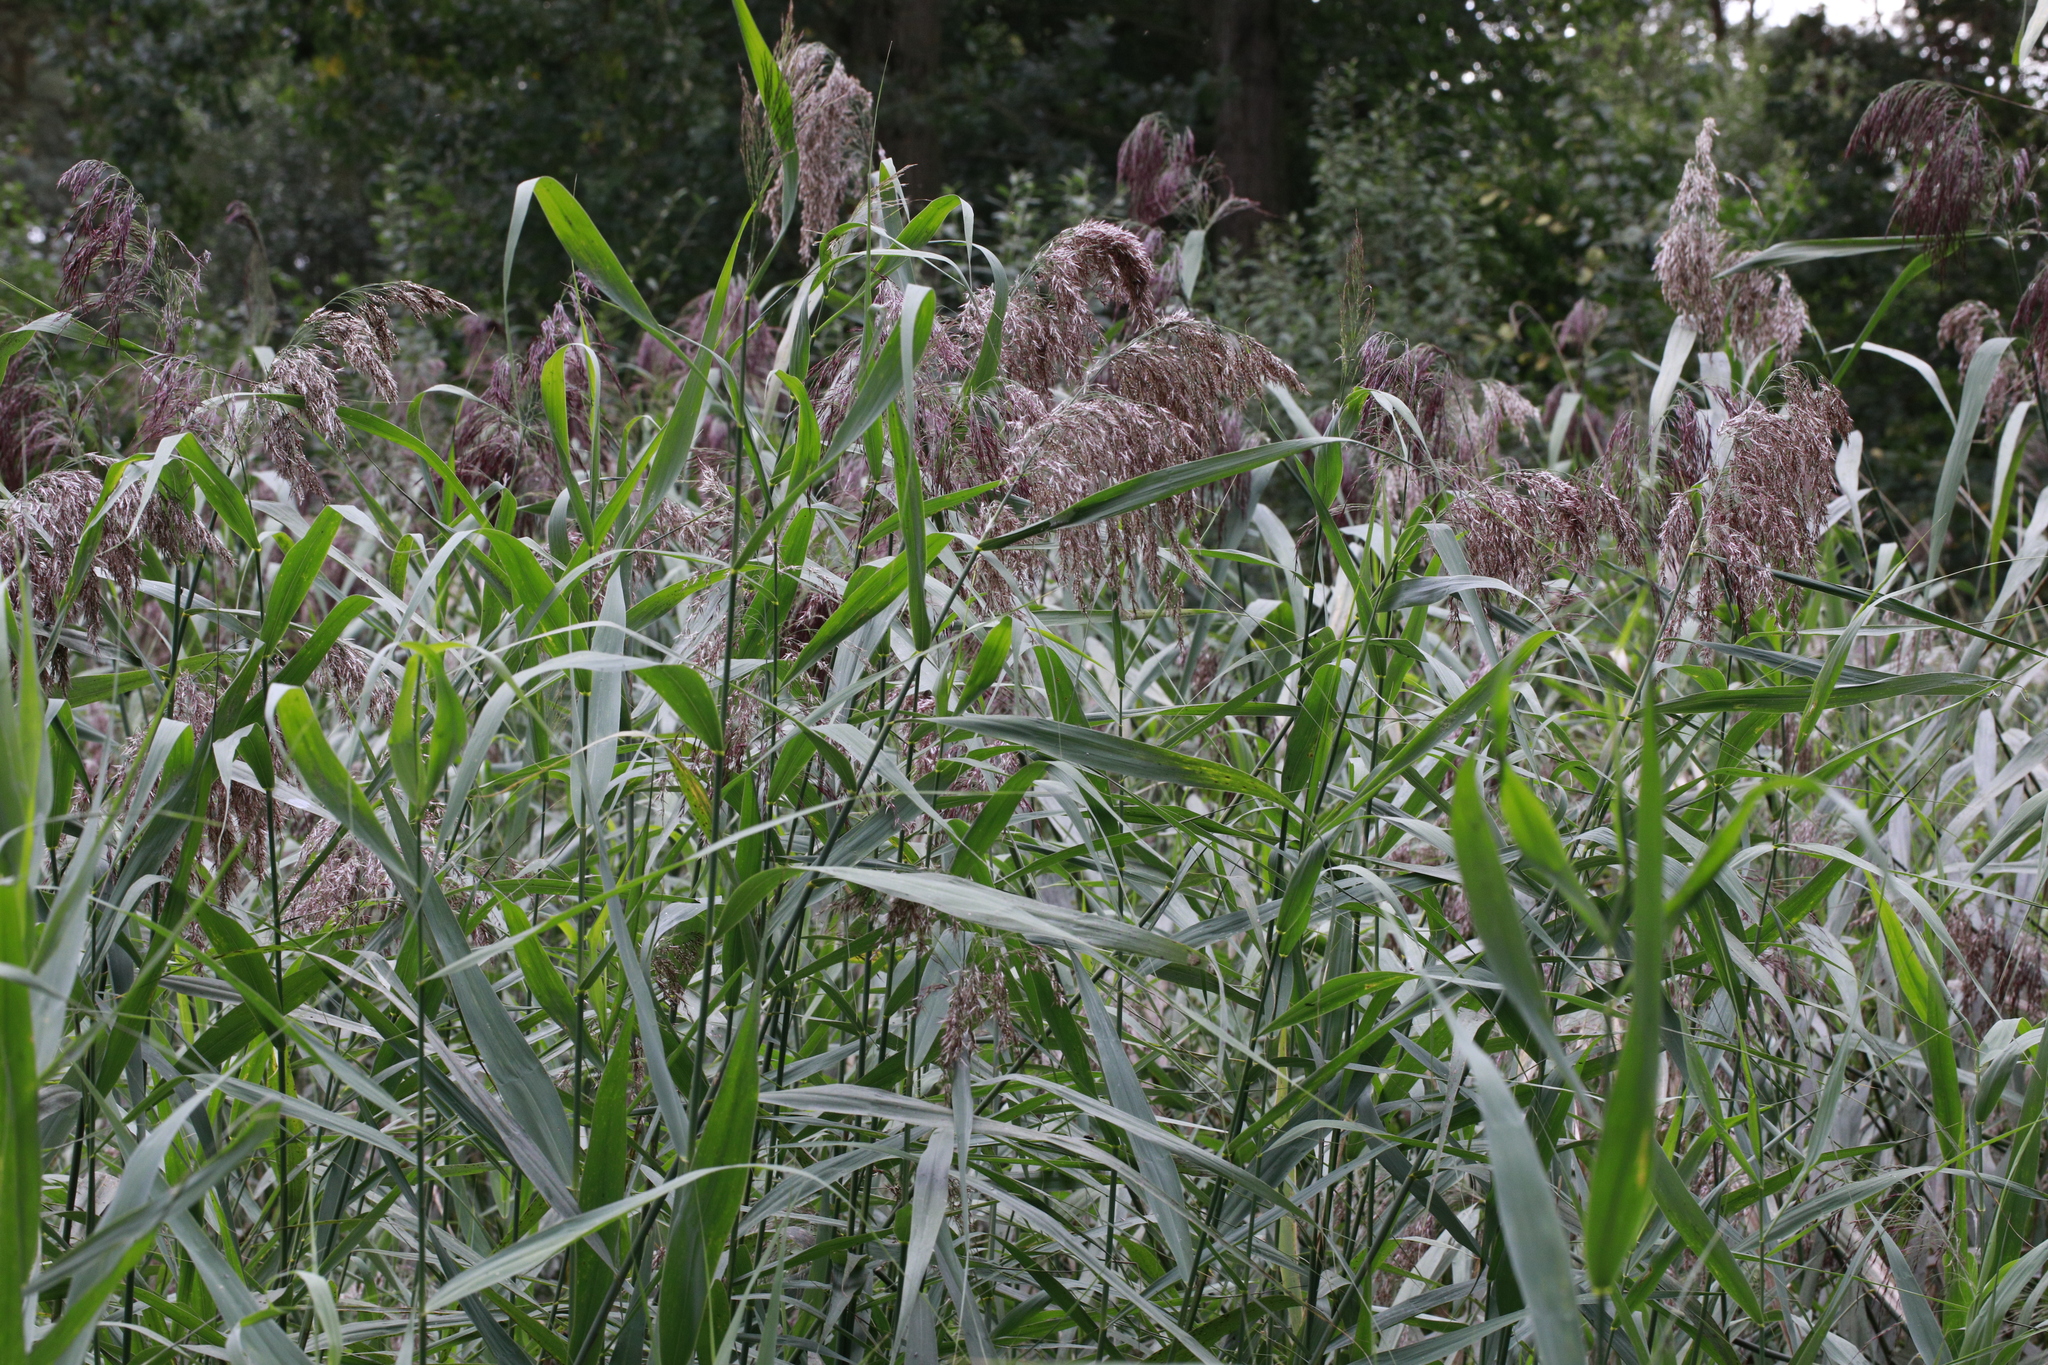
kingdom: Plantae
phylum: Tracheophyta
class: Liliopsida
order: Poales
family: Poaceae
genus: Phragmites
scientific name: Phragmites australis
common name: Common reed
